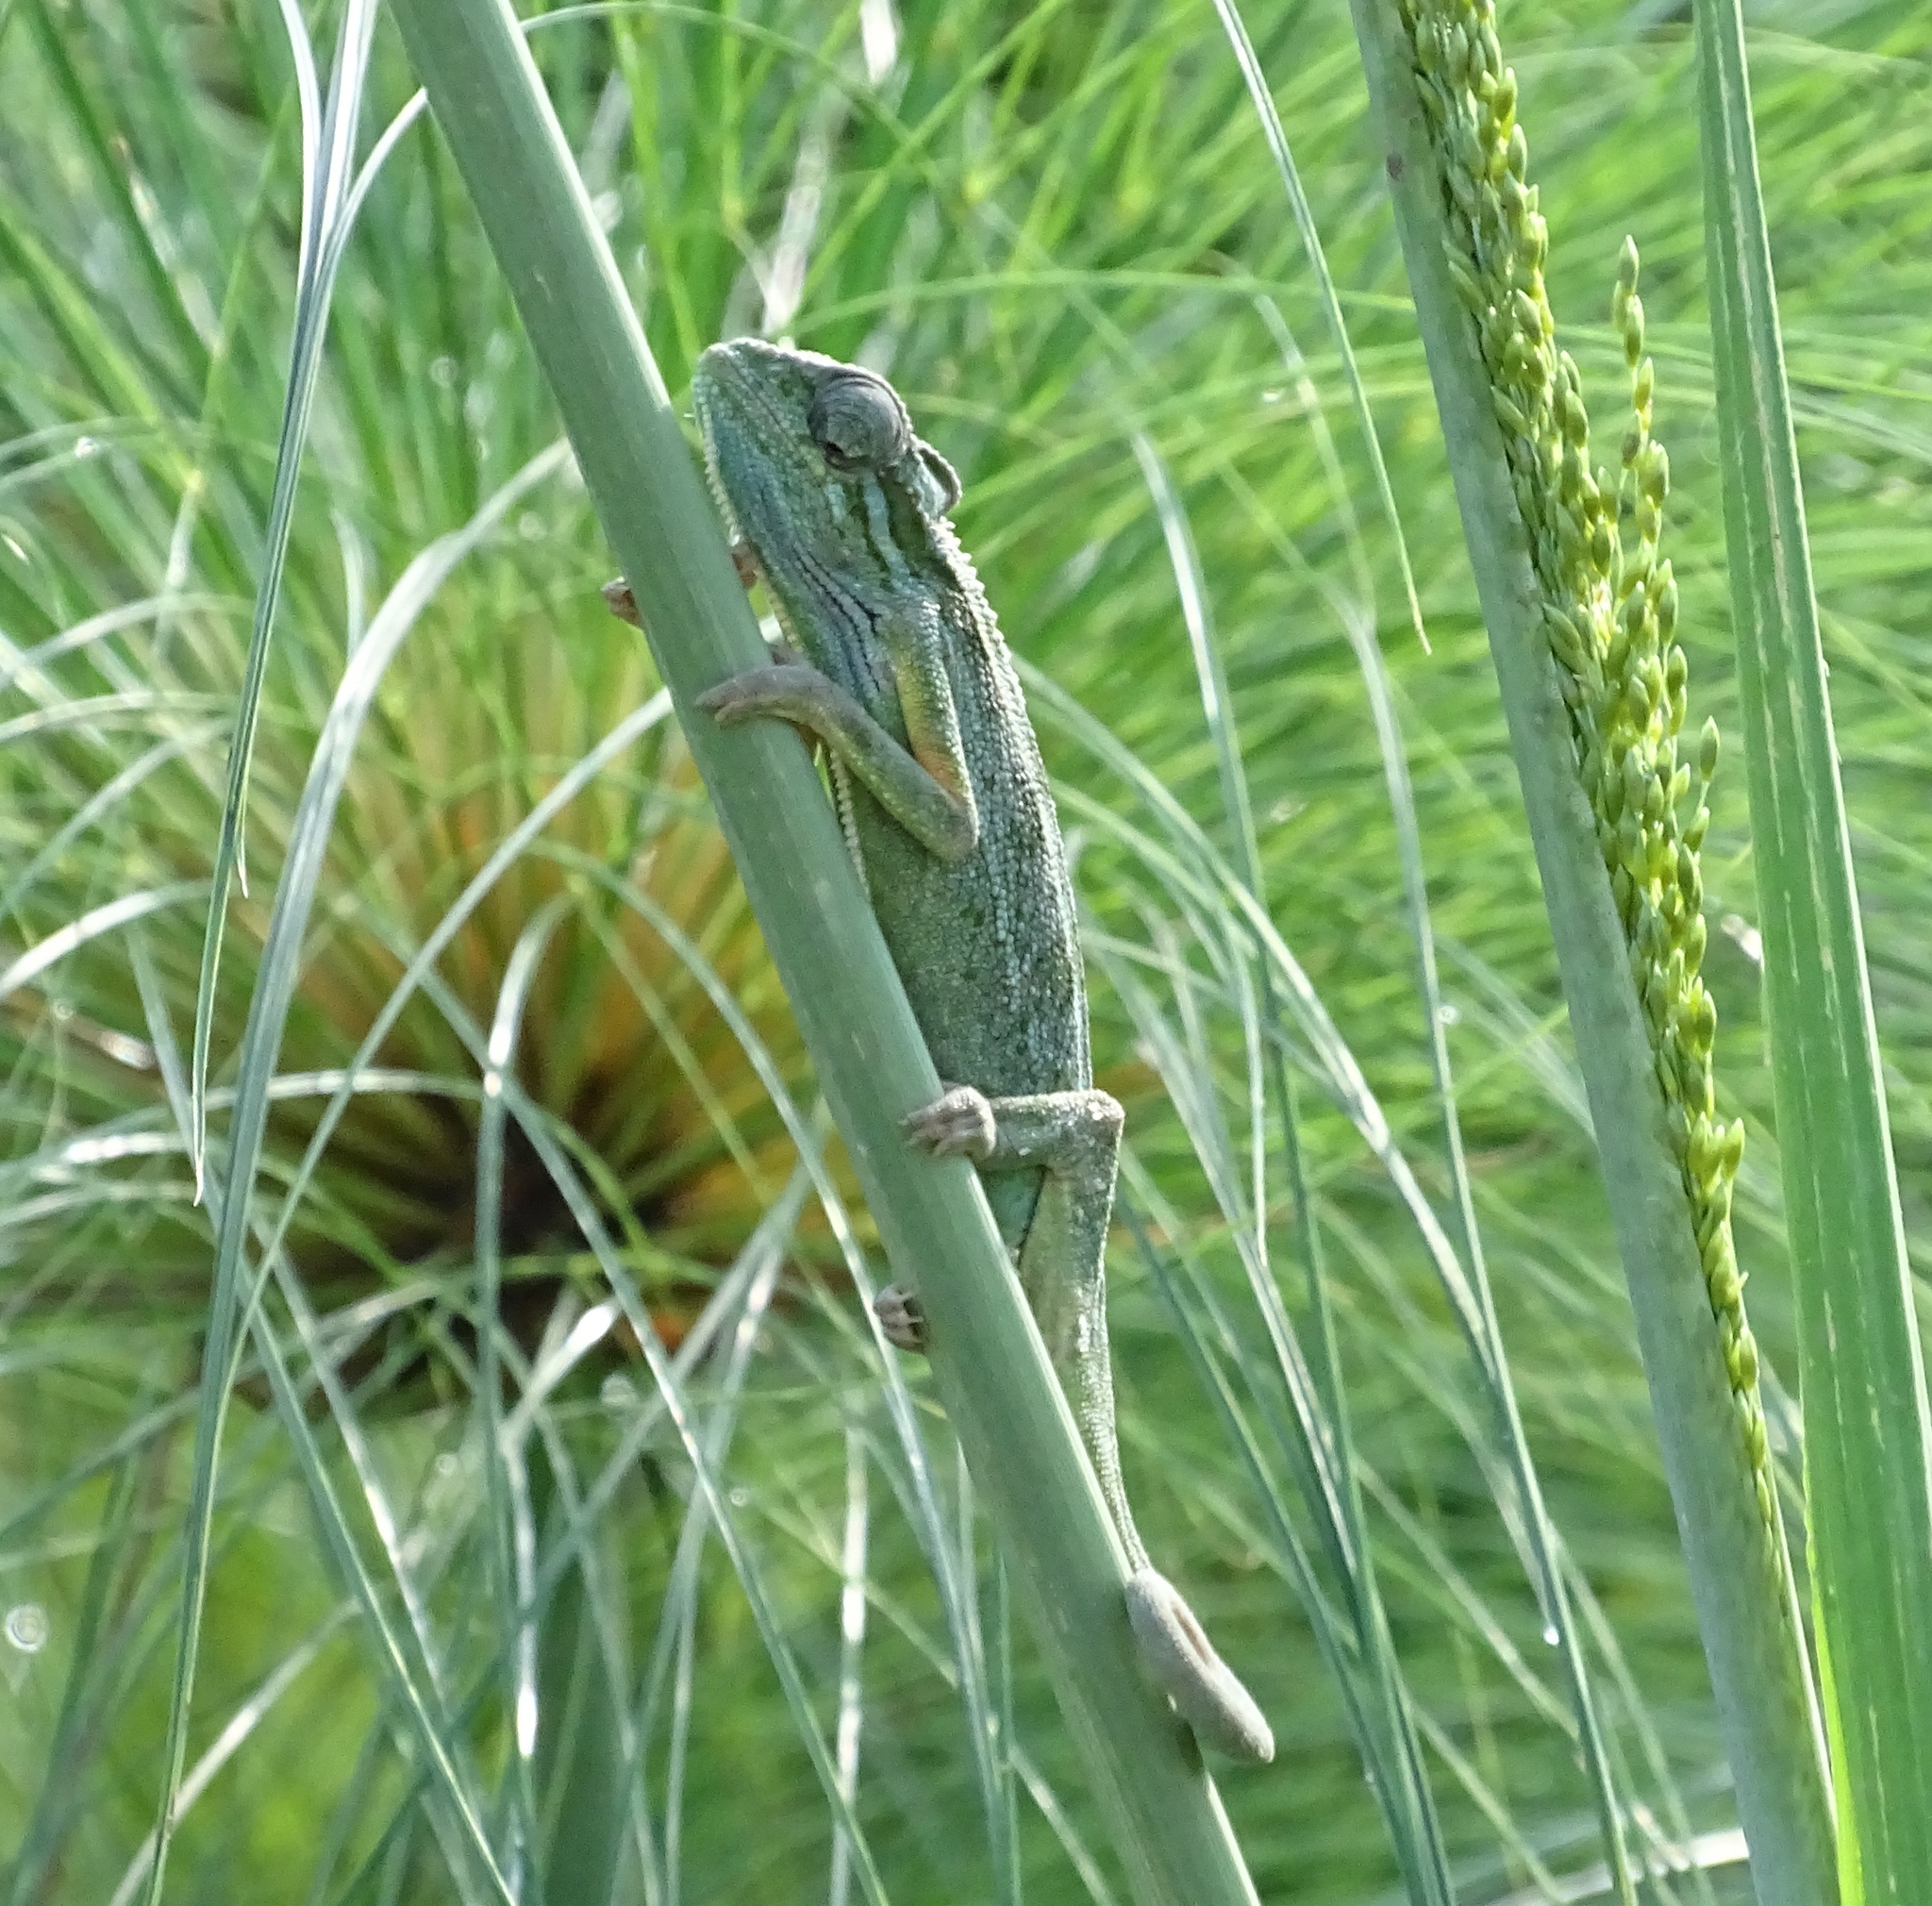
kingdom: Animalia
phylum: Chordata
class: Squamata
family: Chamaeleonidae
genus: Trioceros
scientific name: Trioceros ellioti
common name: Montane side-striped chameleon
